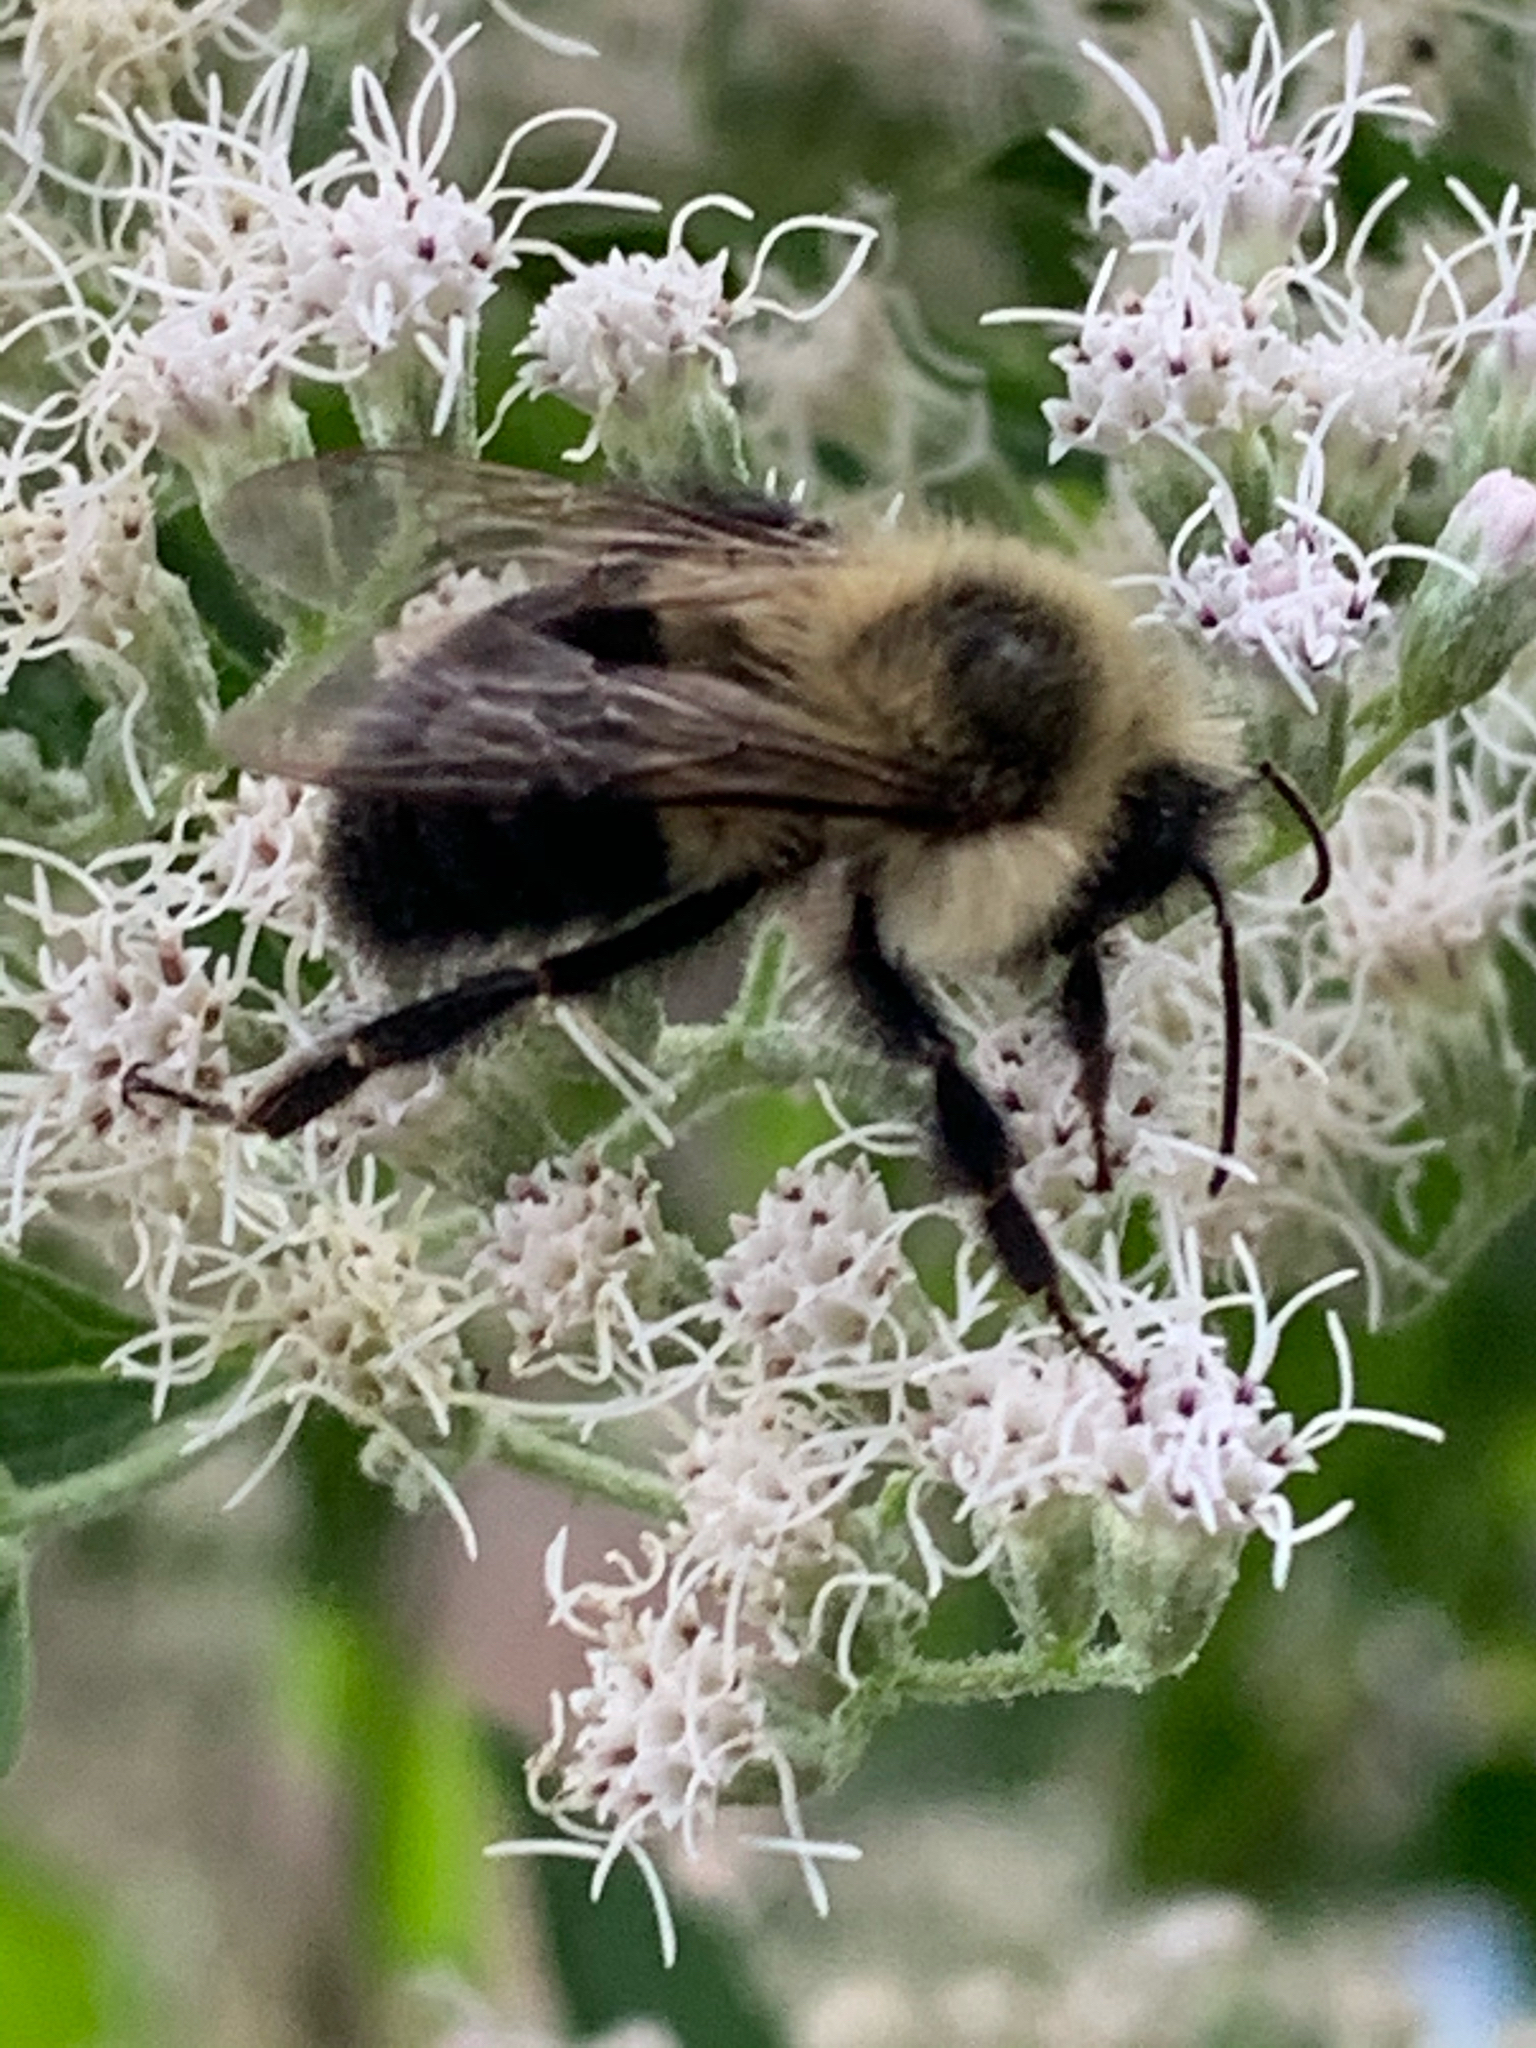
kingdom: Animalia
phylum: Arthropoda
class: Insecta
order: Hymenoptera
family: Apidae
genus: Bombus
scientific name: Bombus impatiens
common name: Common eastern bumble bee
